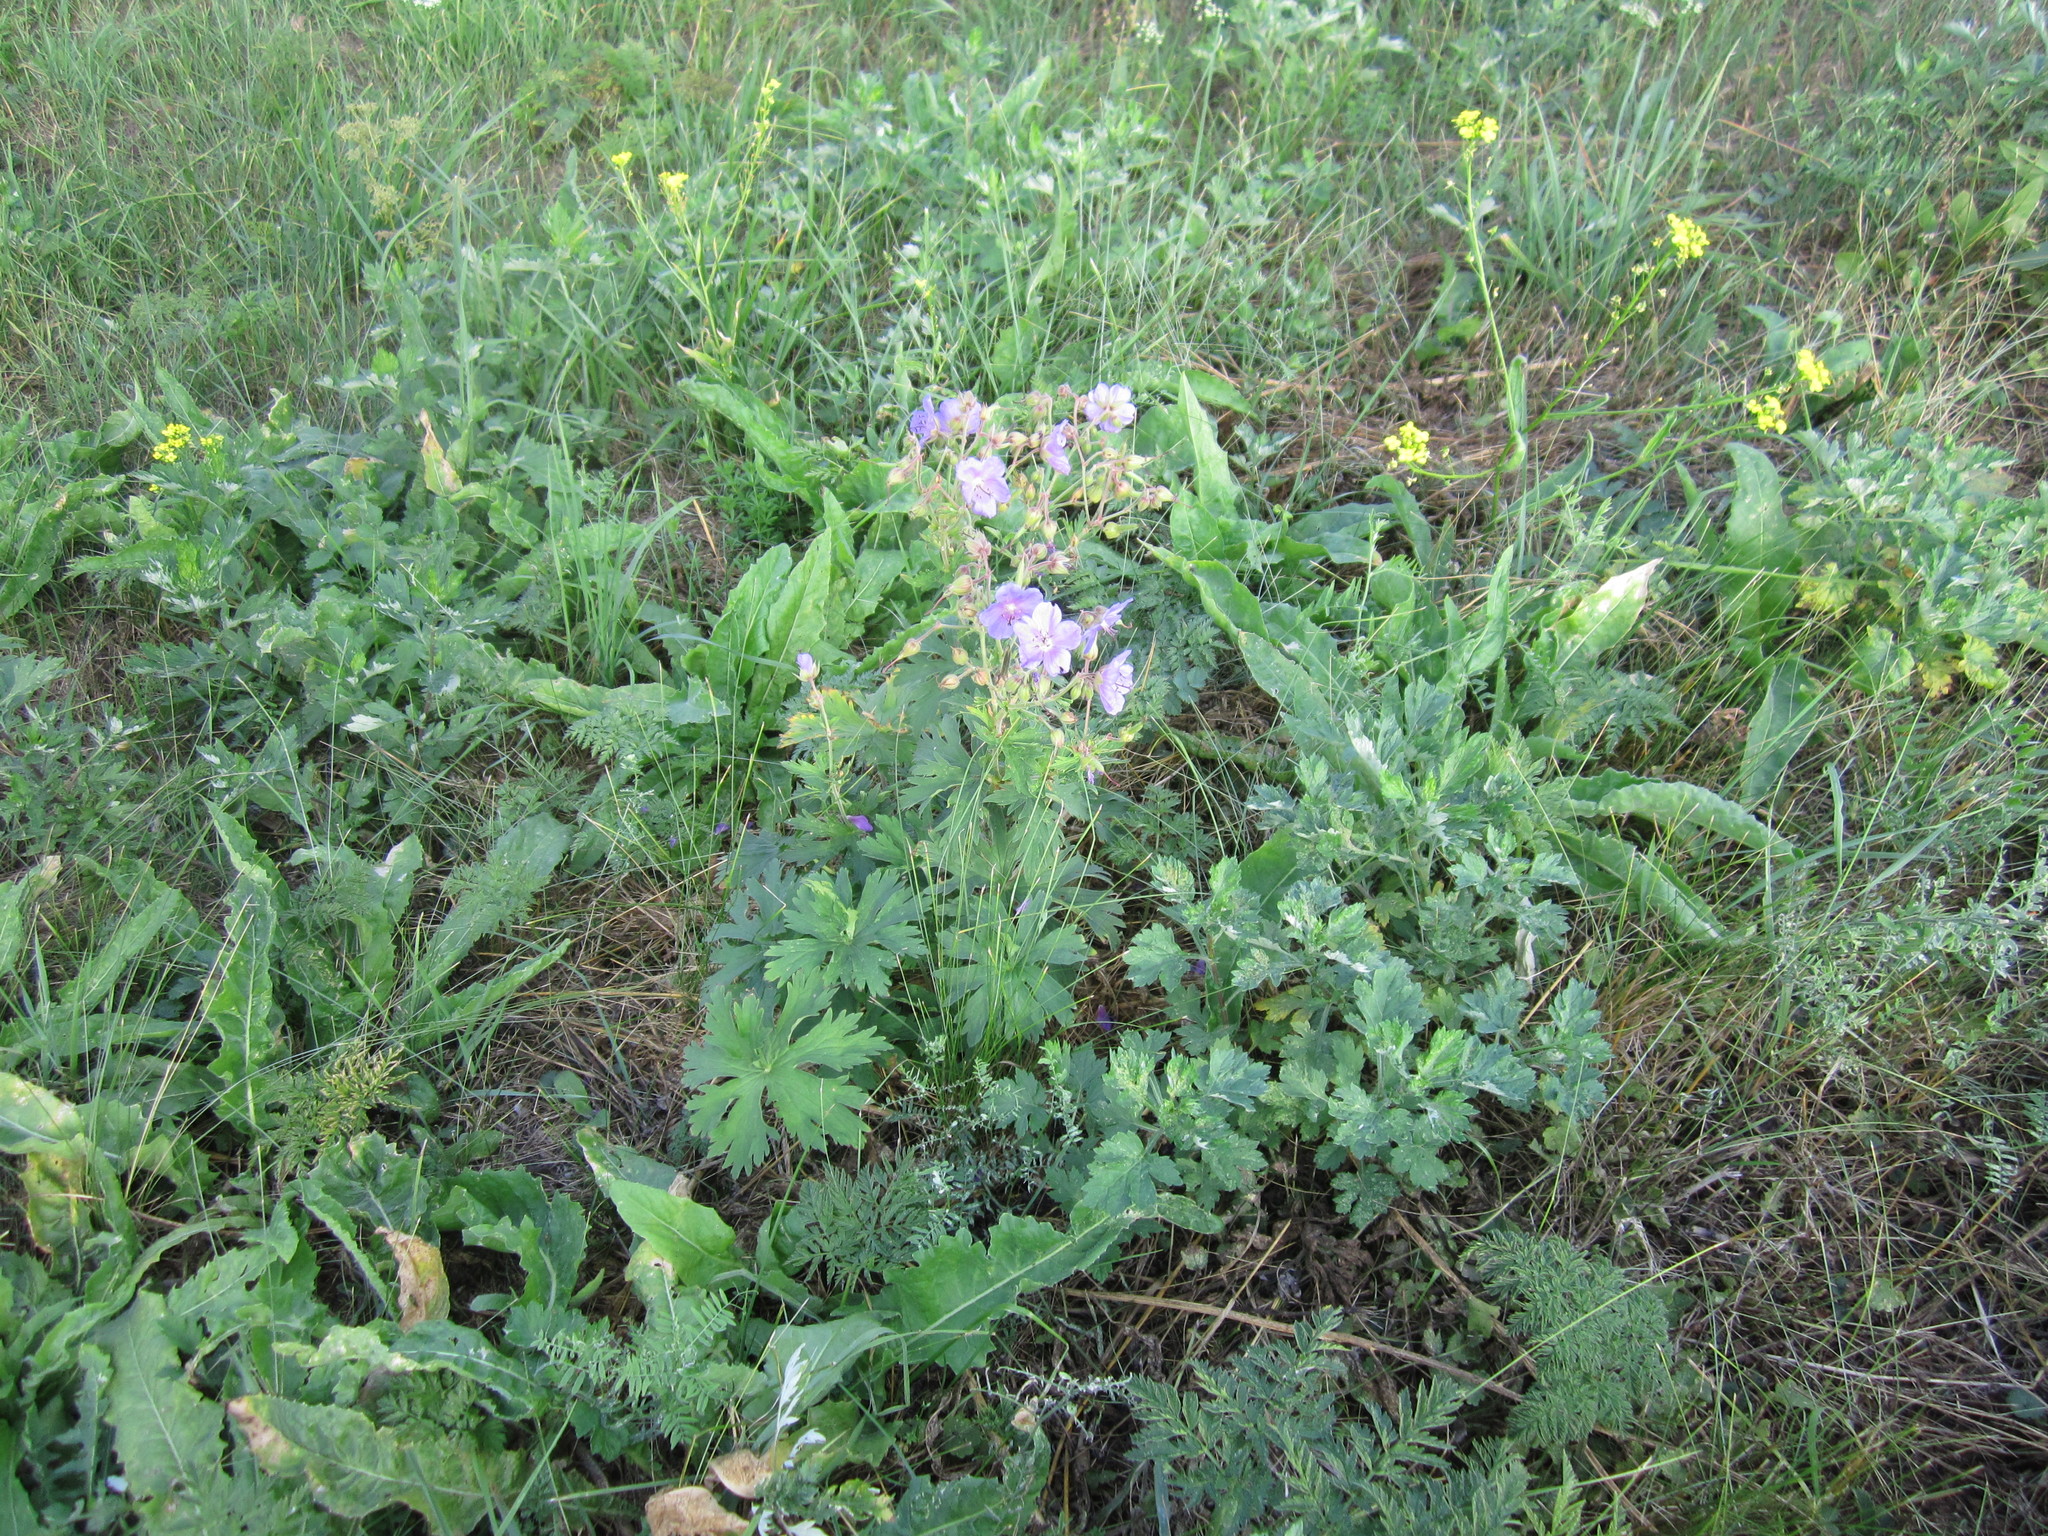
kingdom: Plantae
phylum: Tracheophyta
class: Magnoliopsida
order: Geraniales
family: Geraniaceae
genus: Geranium
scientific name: Geranium pratense
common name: Meadow crane's-bill
